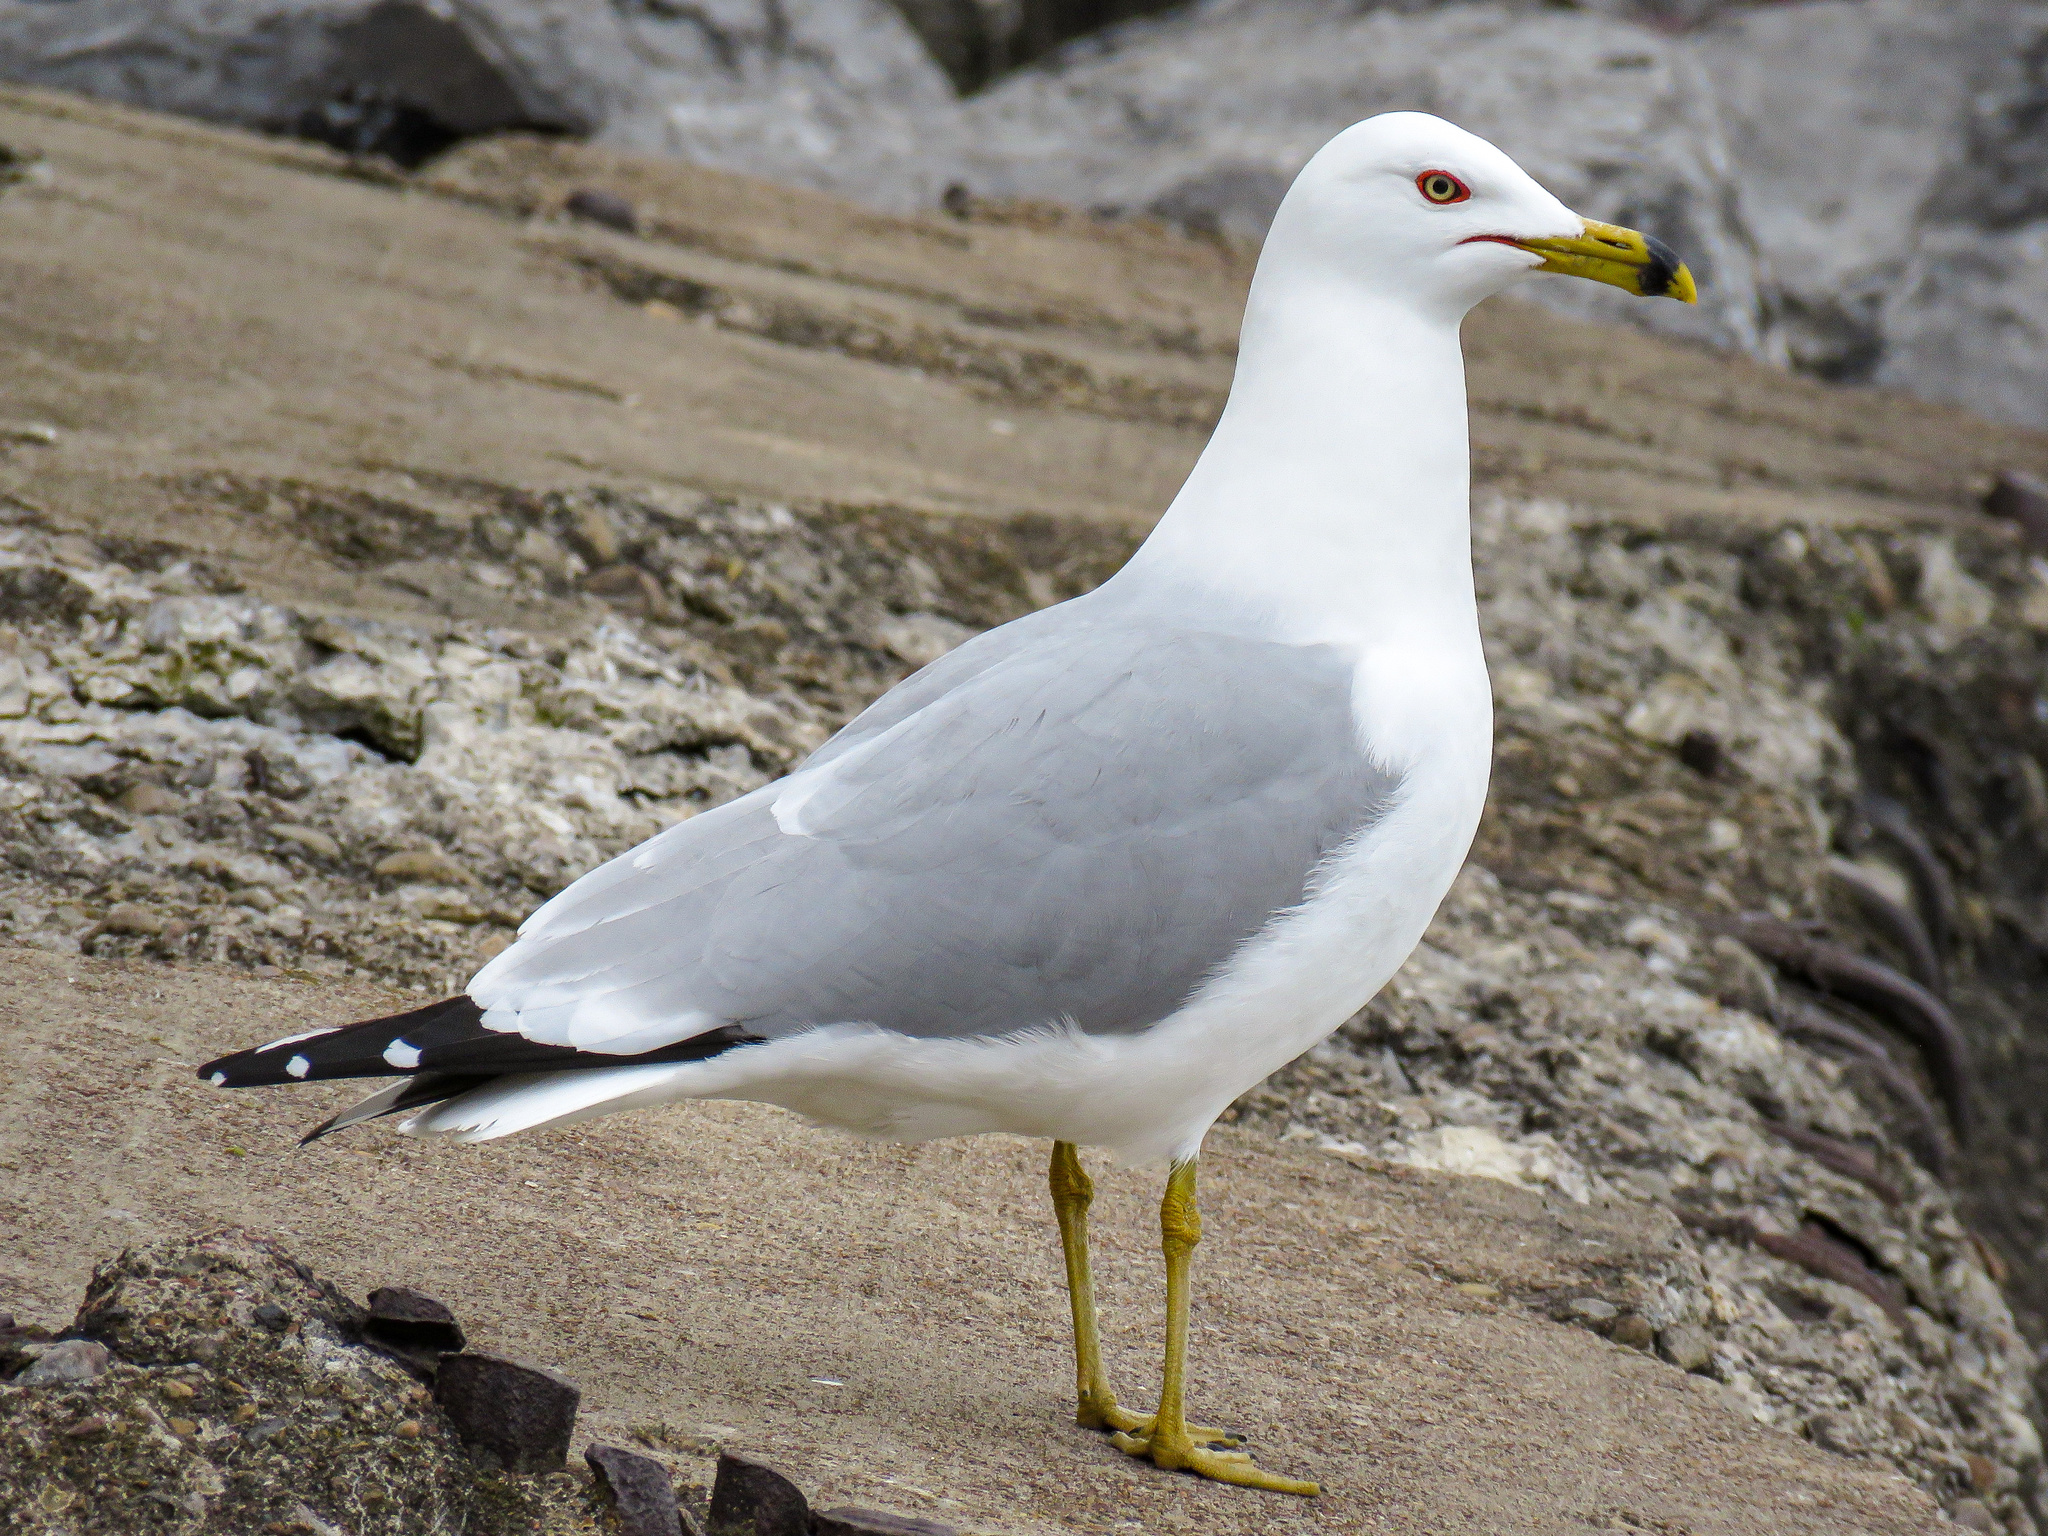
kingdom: Animalia
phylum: Chordata
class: Aves
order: Charadriiformes
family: Laridae
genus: Larus
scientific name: Larus delawarensis
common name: Ring-billed gull
